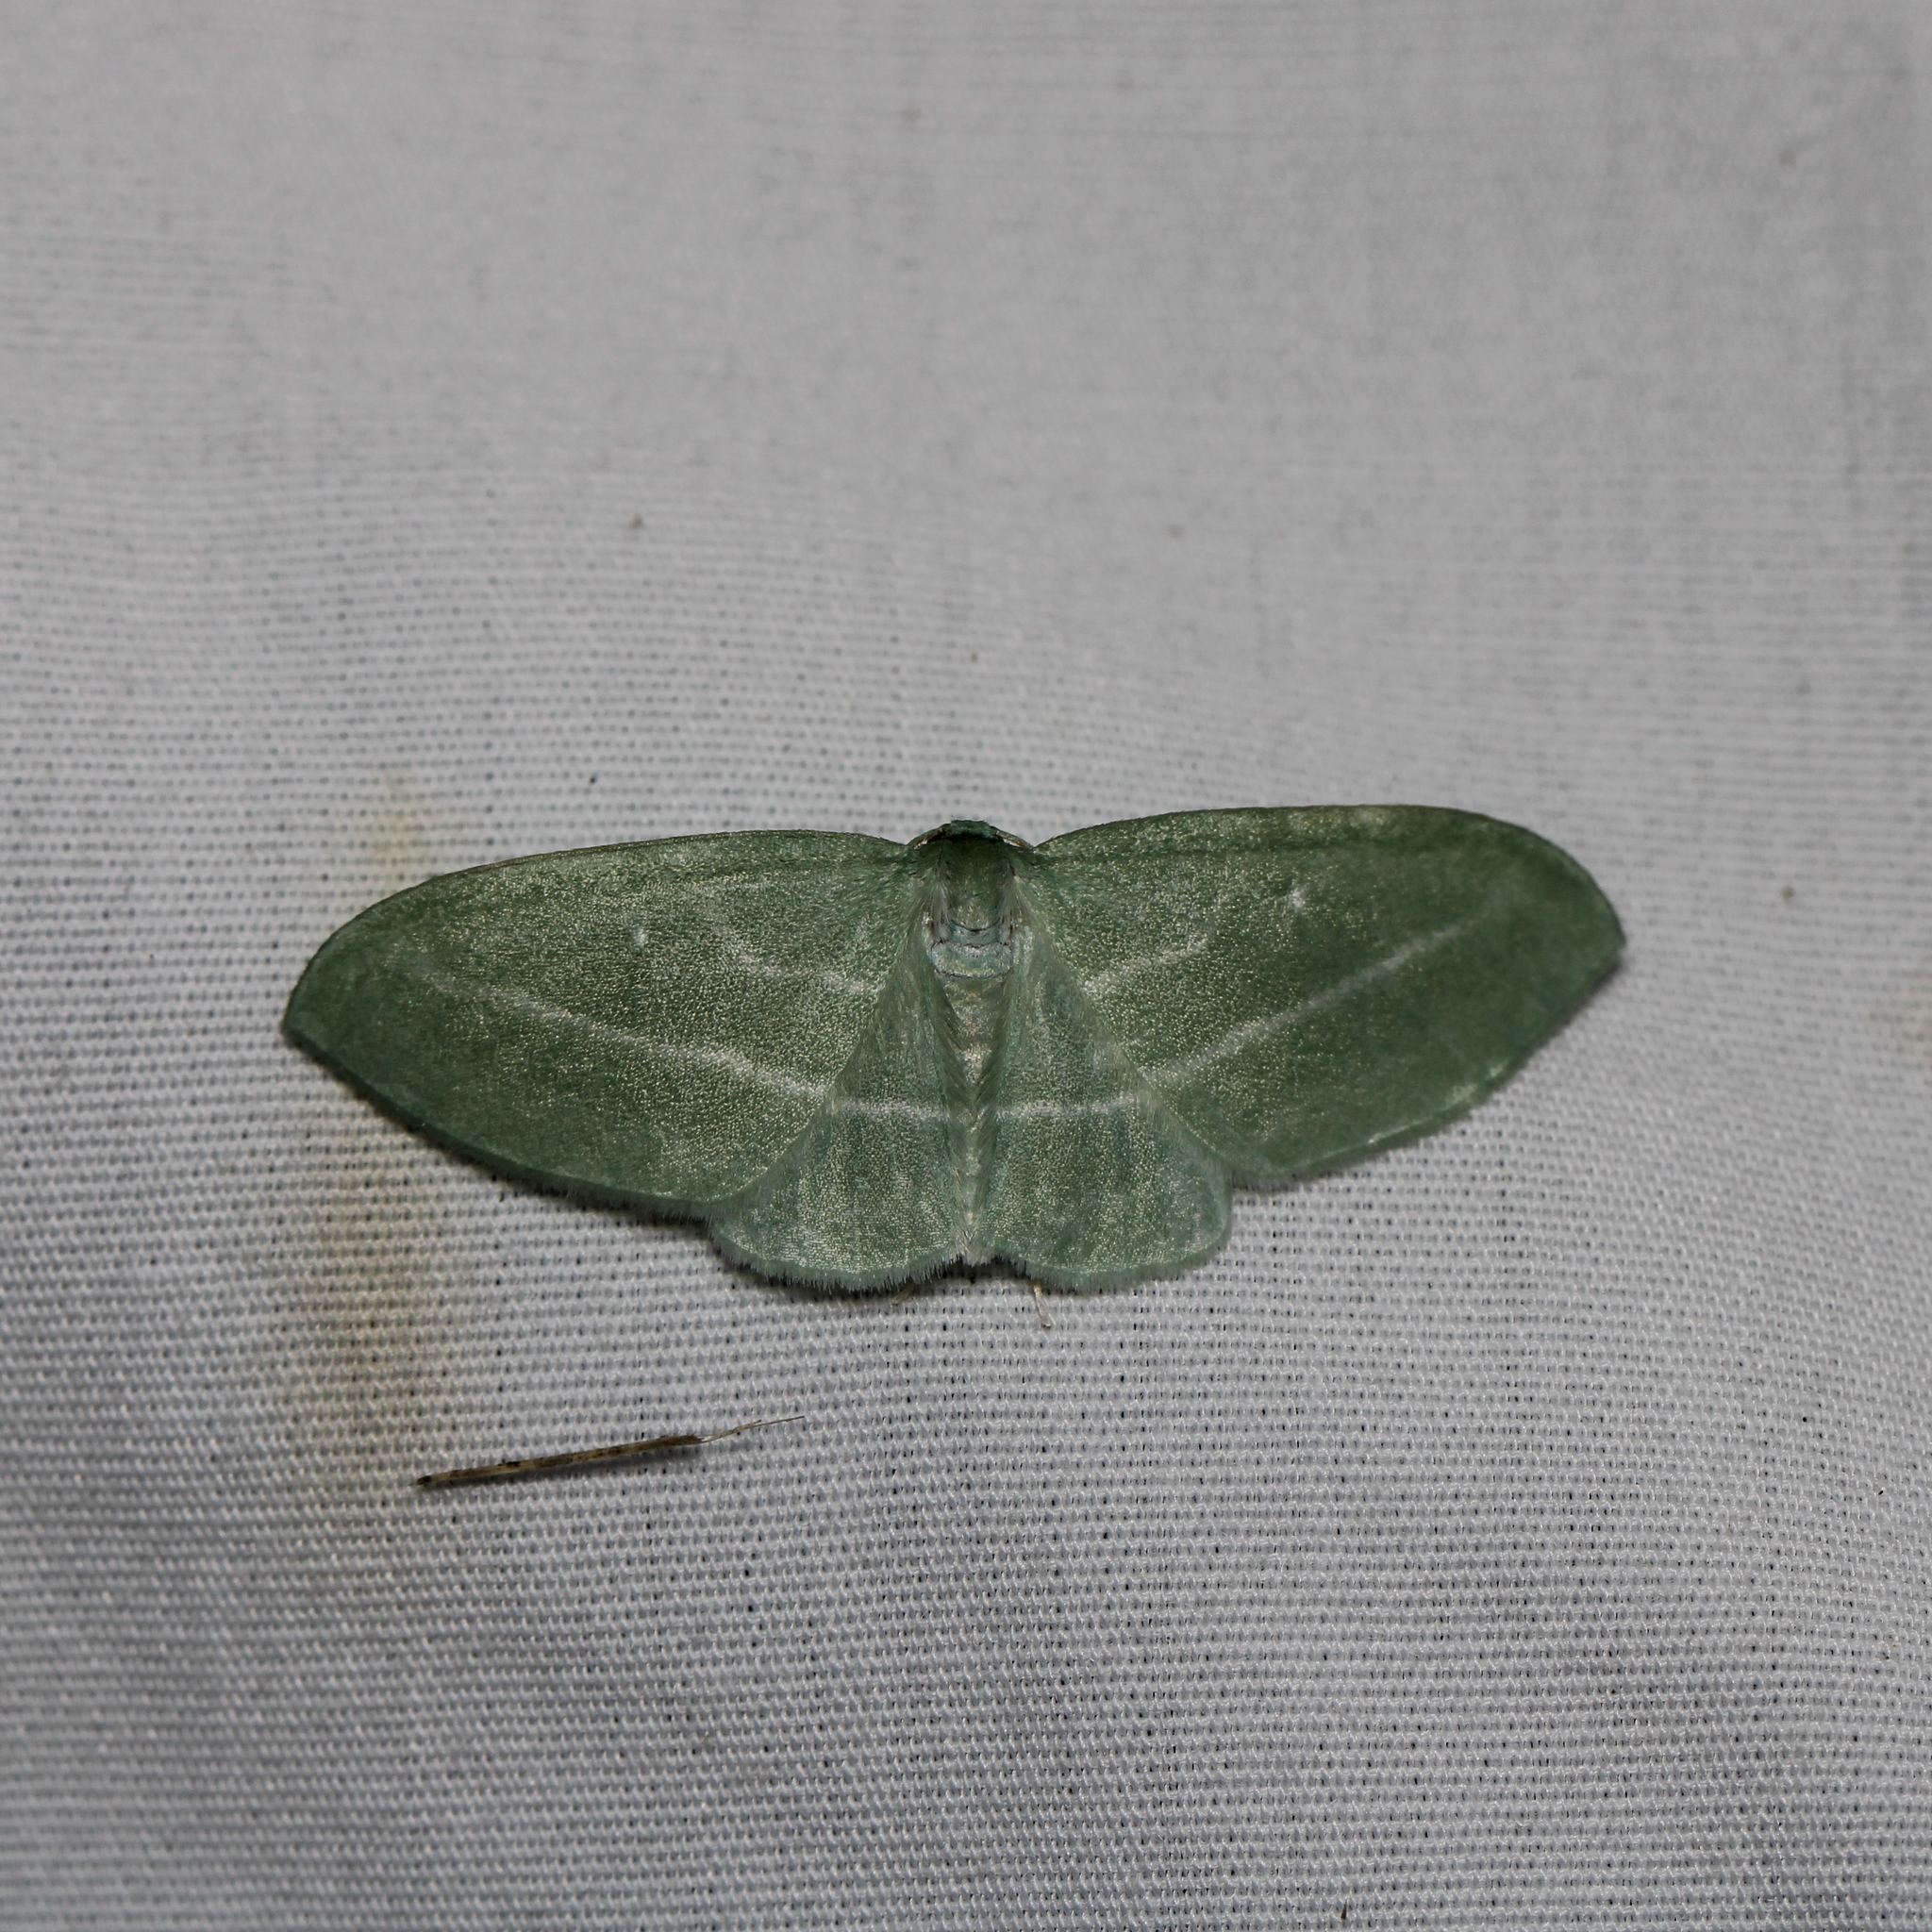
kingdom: Animalia
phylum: Arthropoda
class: Insecta
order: Lepidoptera
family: Geometridae
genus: Dyspteris
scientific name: Dyspteris abortivaria
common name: Bad-wing
